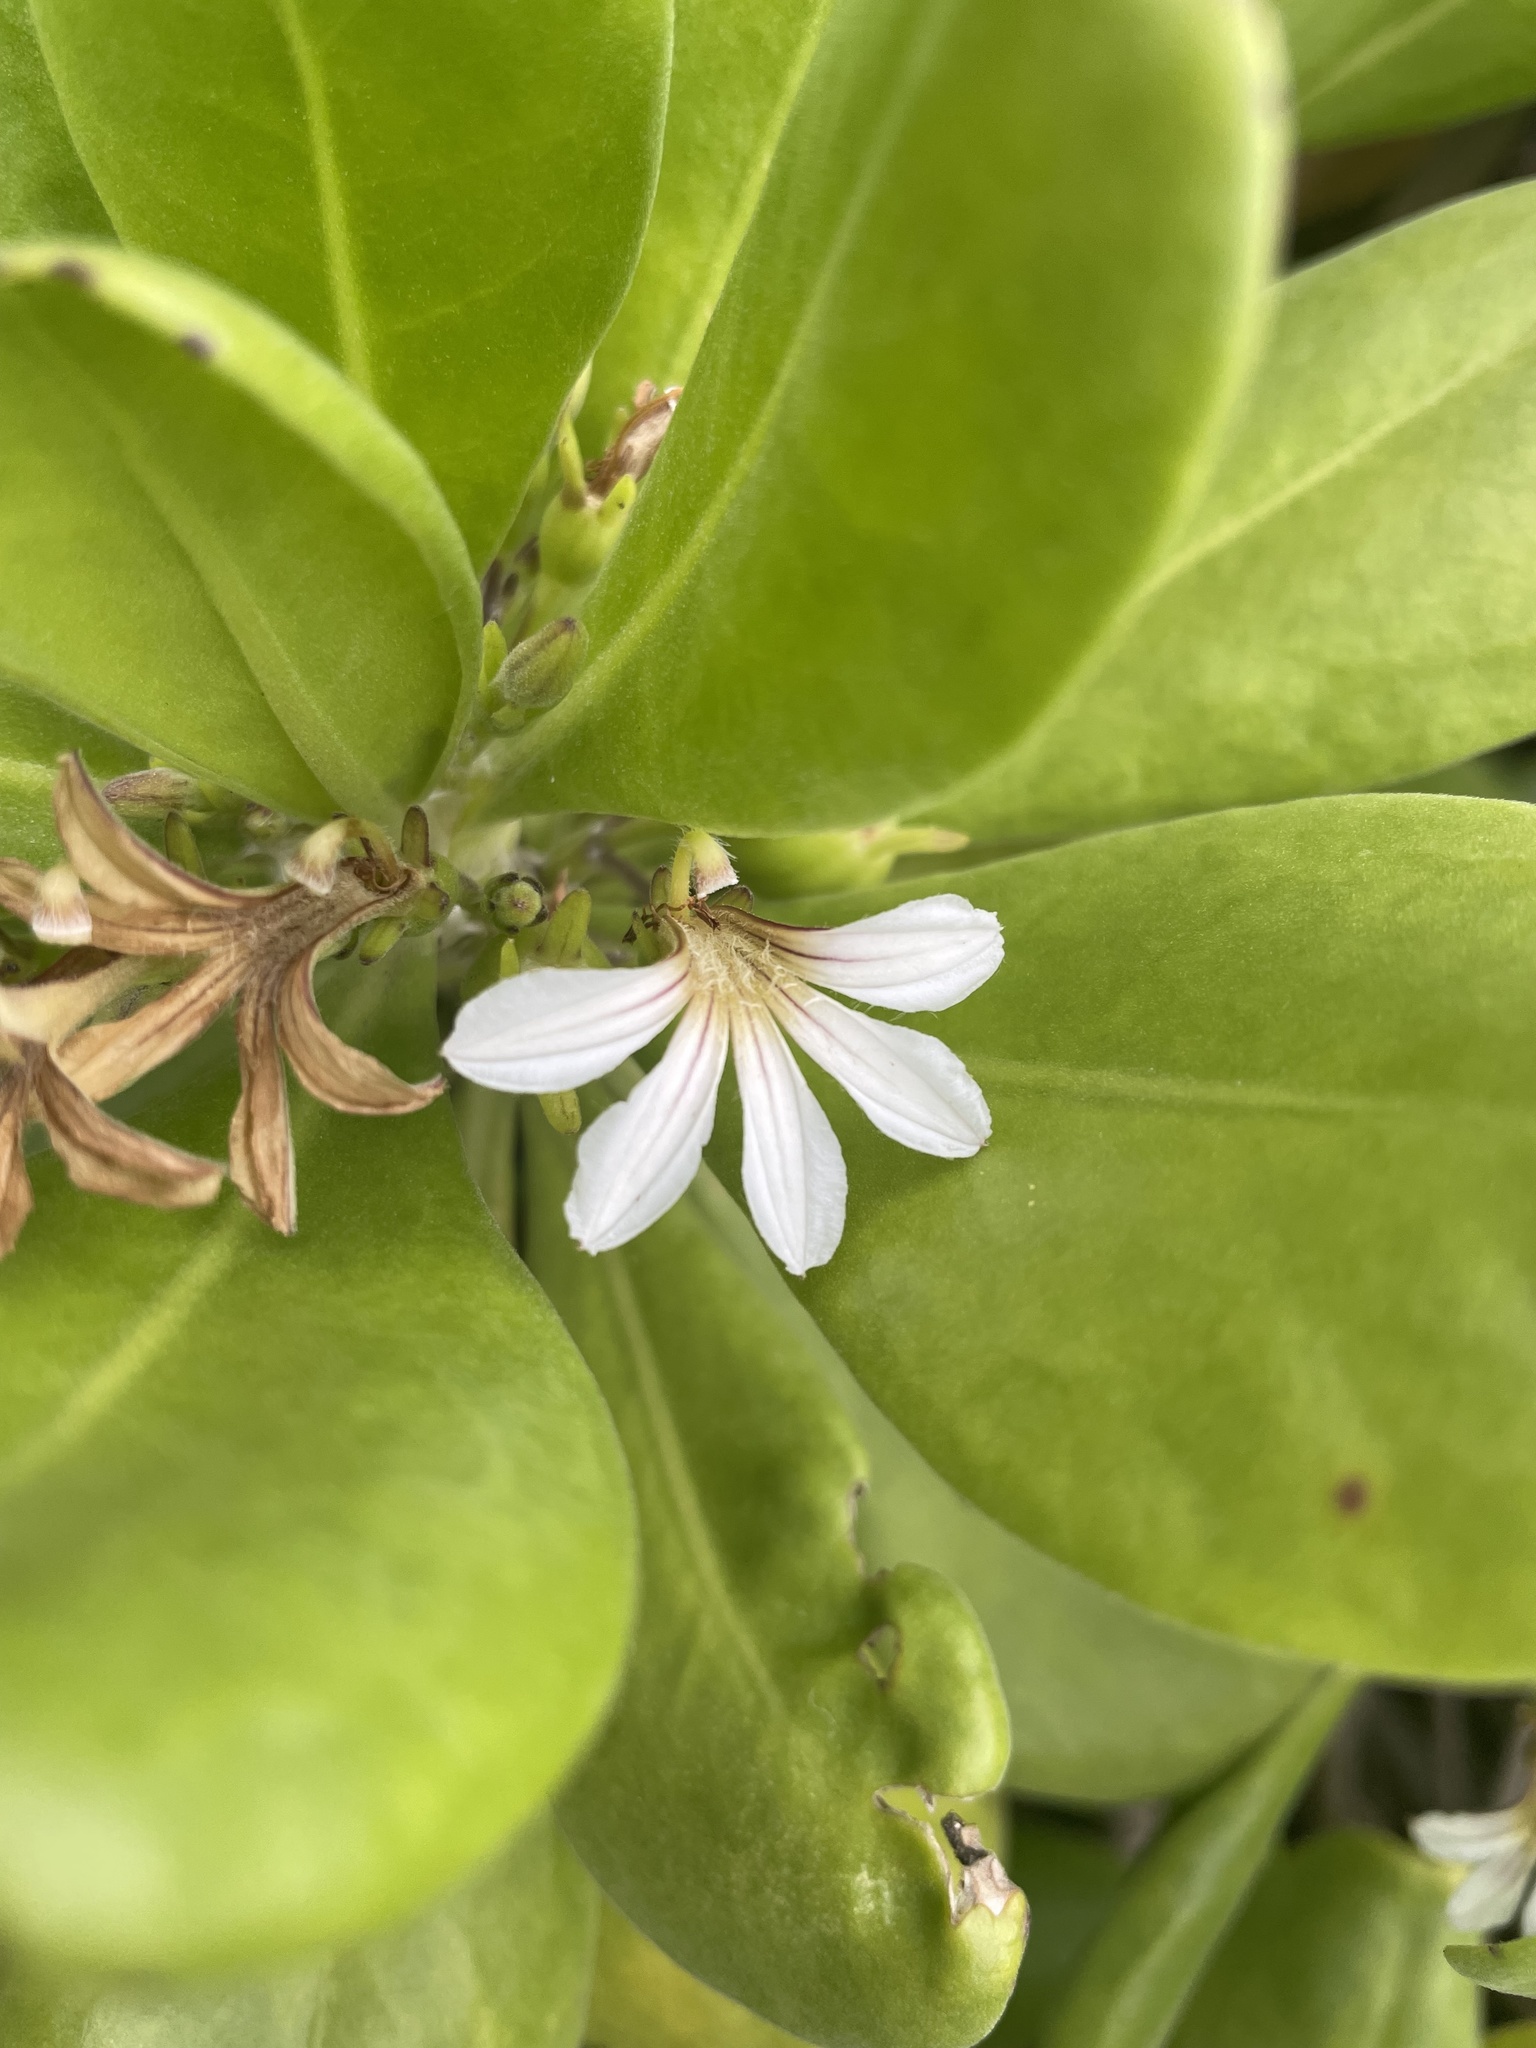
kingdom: Plantae
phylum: Tracheophyta
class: Magnoliopsida
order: Asterales
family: Goodeniaceae
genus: Scaevola
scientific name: Scaevola taccada
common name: Sea lettucetree
